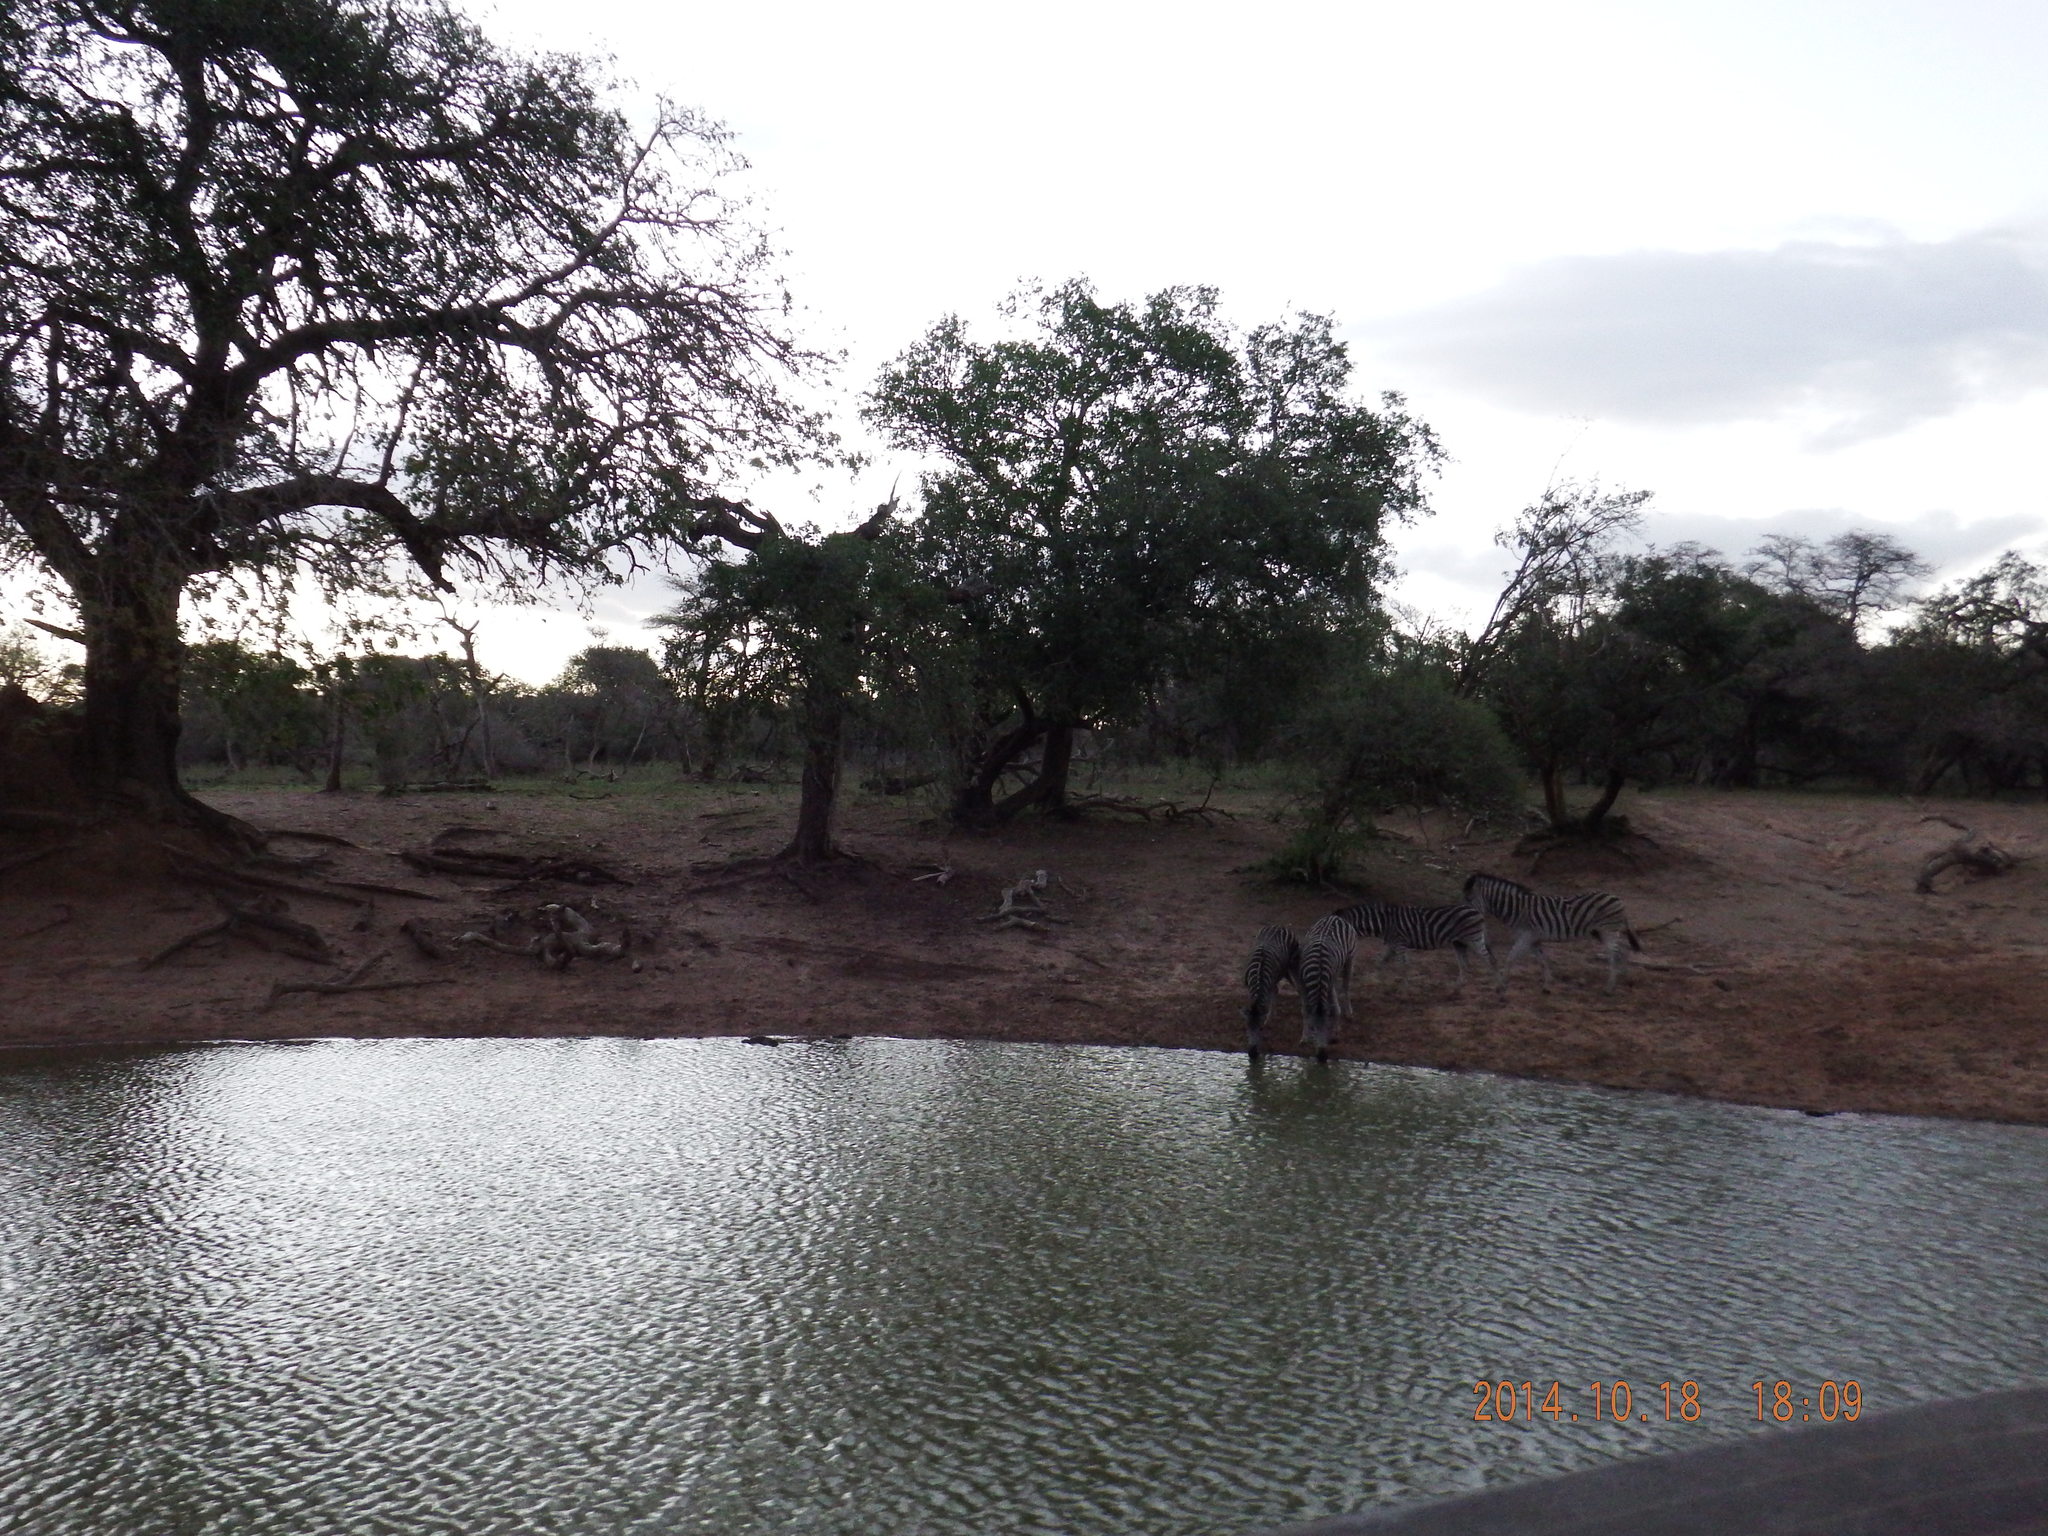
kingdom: Animalia
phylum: Chordata
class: Mammalia
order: Perissodactyla
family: Equidae
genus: Equus
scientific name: Equus quagga
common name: Plains zebra
